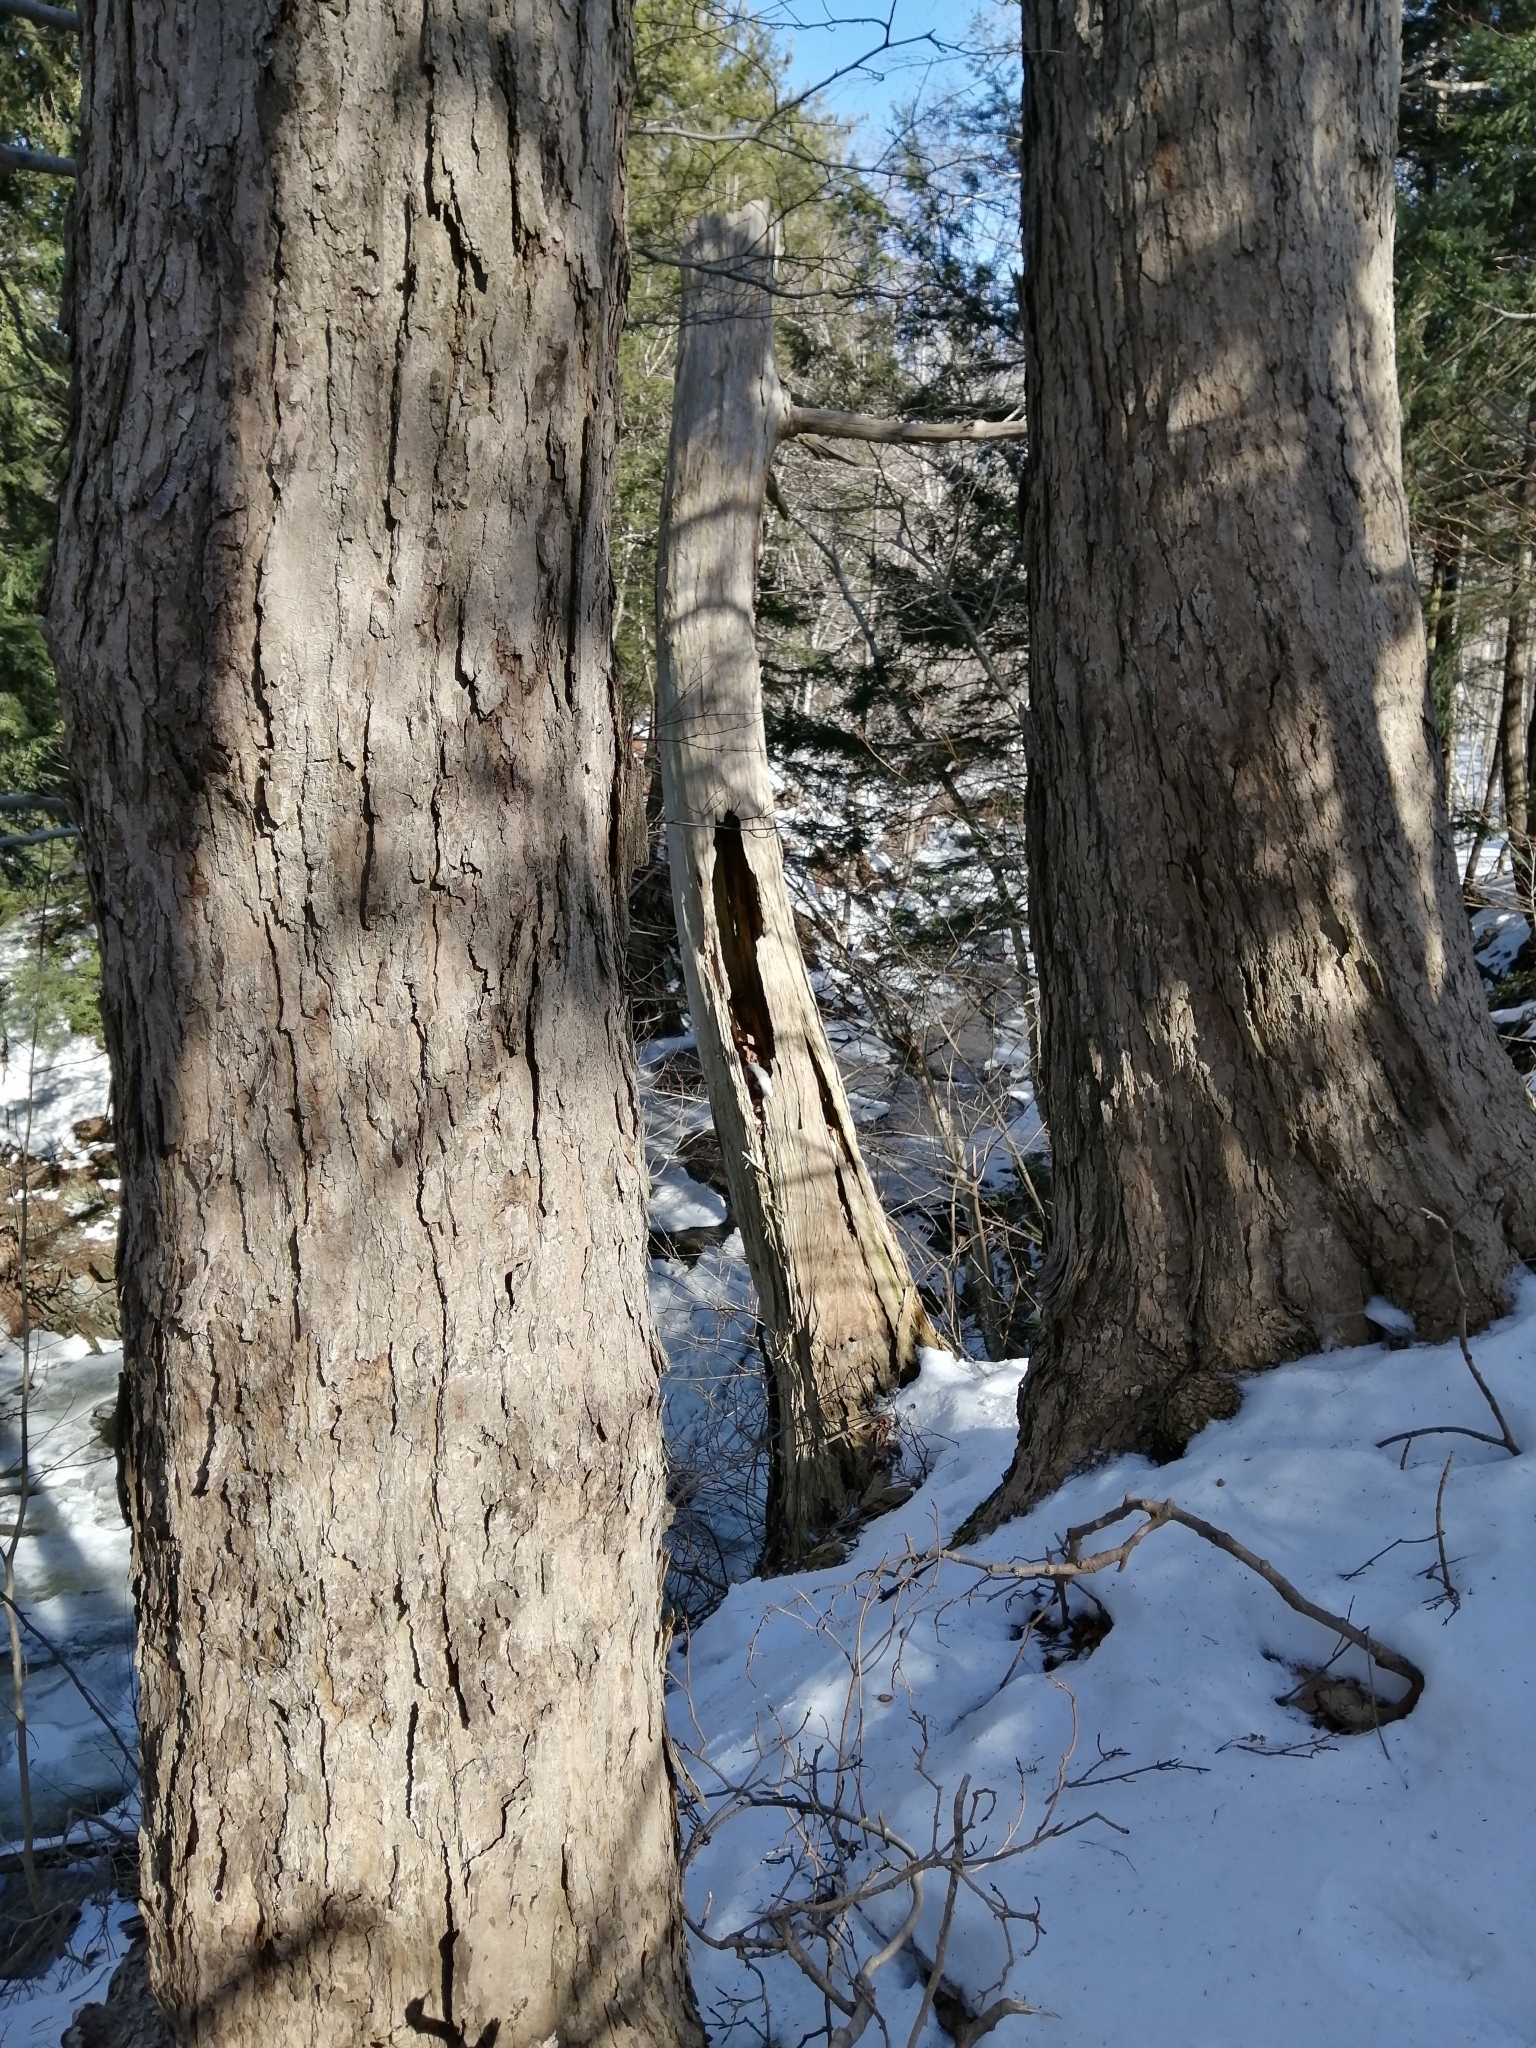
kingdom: Plantae
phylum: Tracheophyta
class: Magnoliopsida
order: Sapindales
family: Sapindaceae
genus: Acer
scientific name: Acer saccharum
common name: Sugar maple
